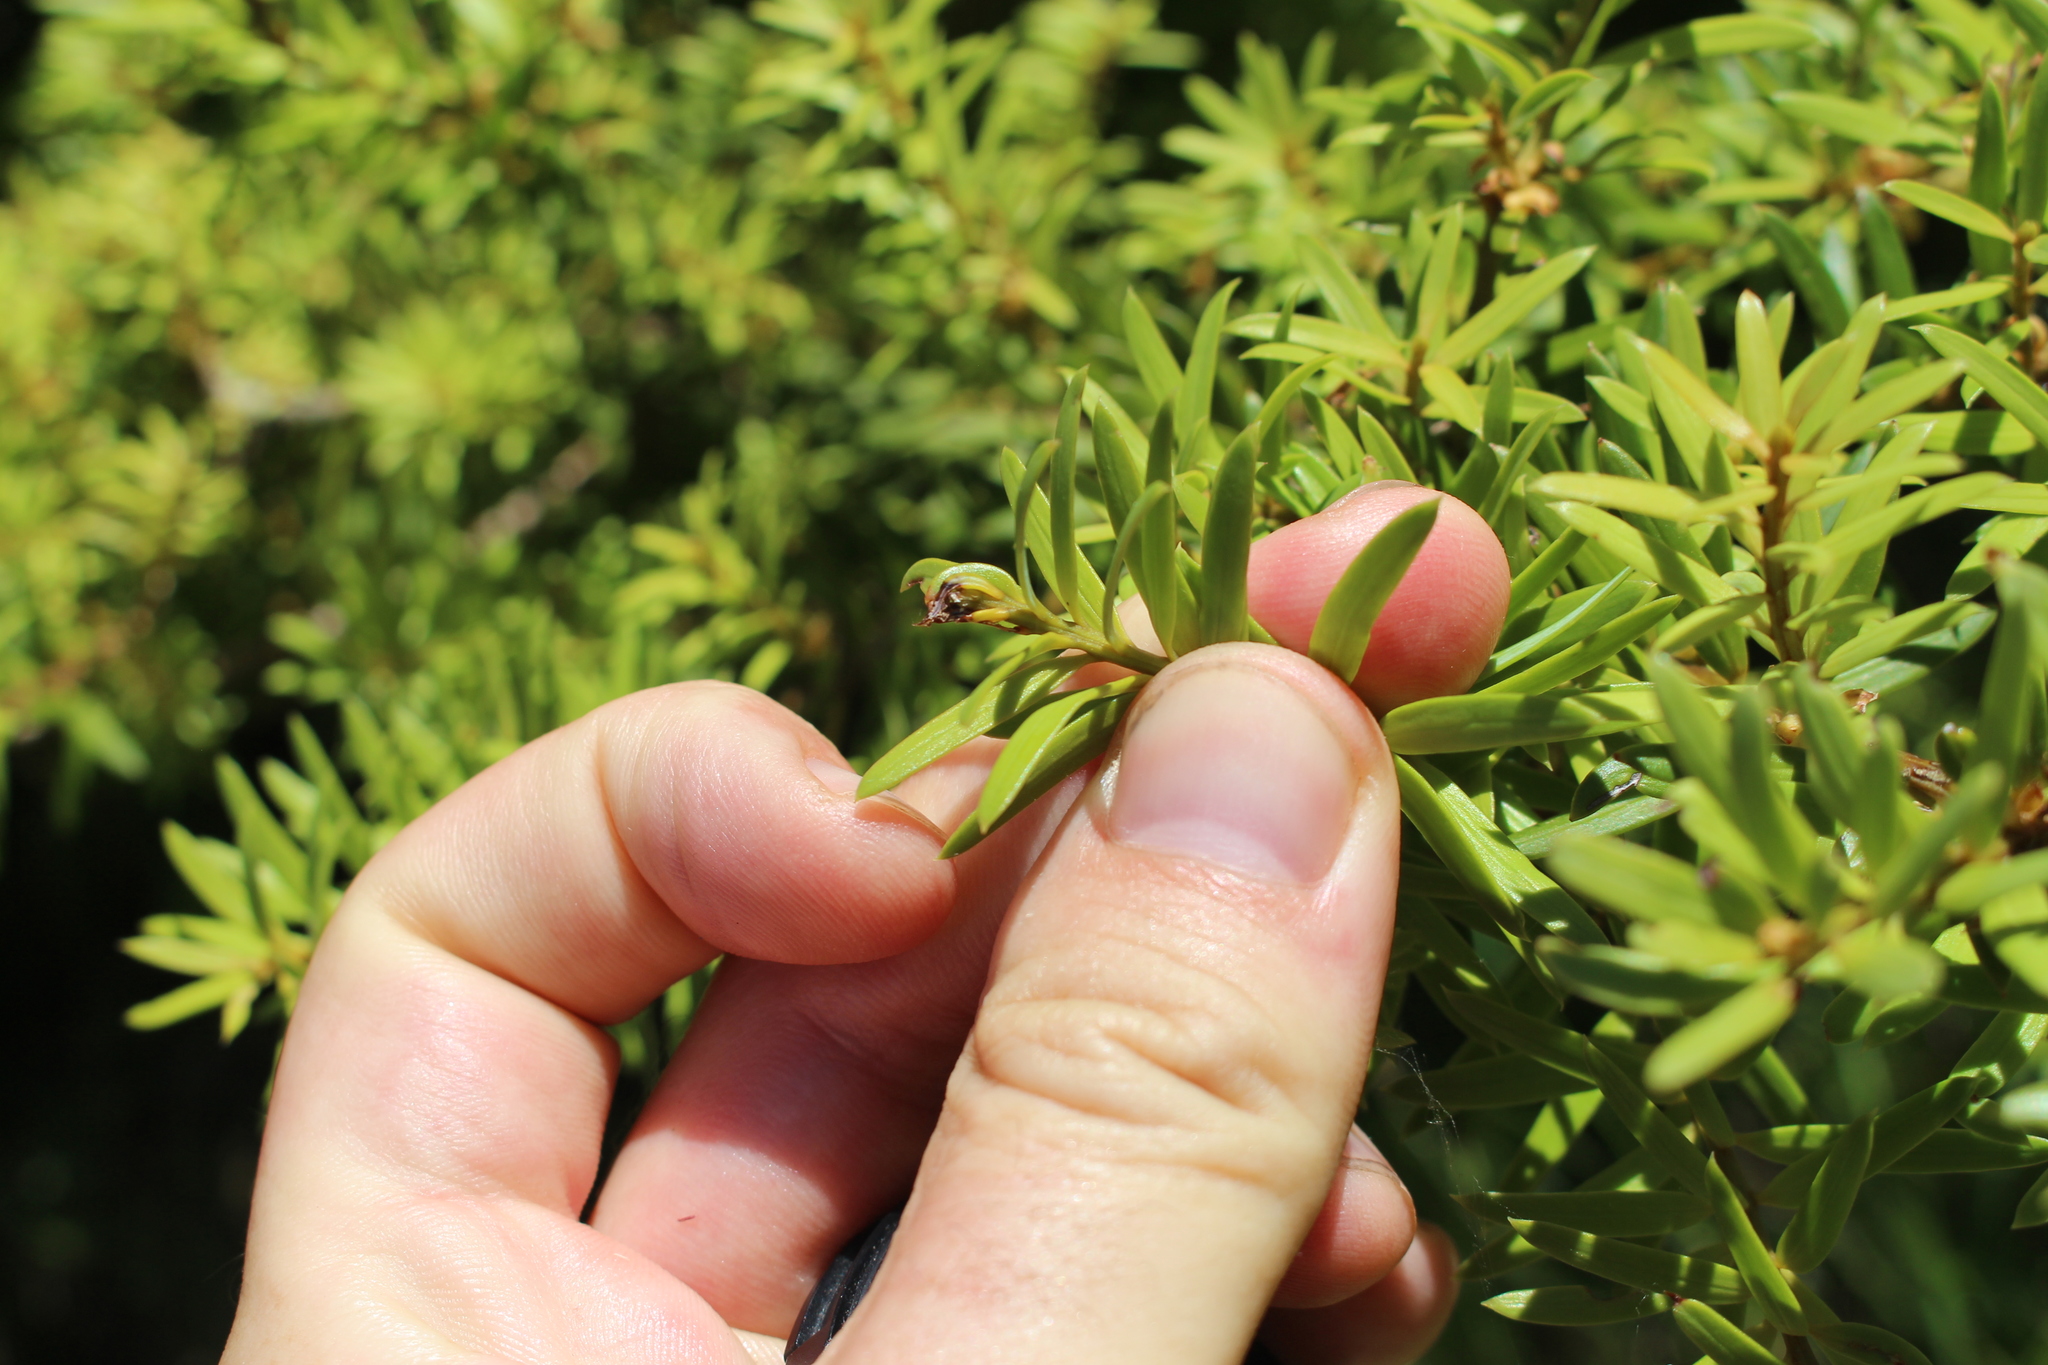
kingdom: Plantae
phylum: Tracheophyta
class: Pinopsida
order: Pinales
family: Podocarpaceae
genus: Podocarpus
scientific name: Podocarpus totara
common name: Totara
